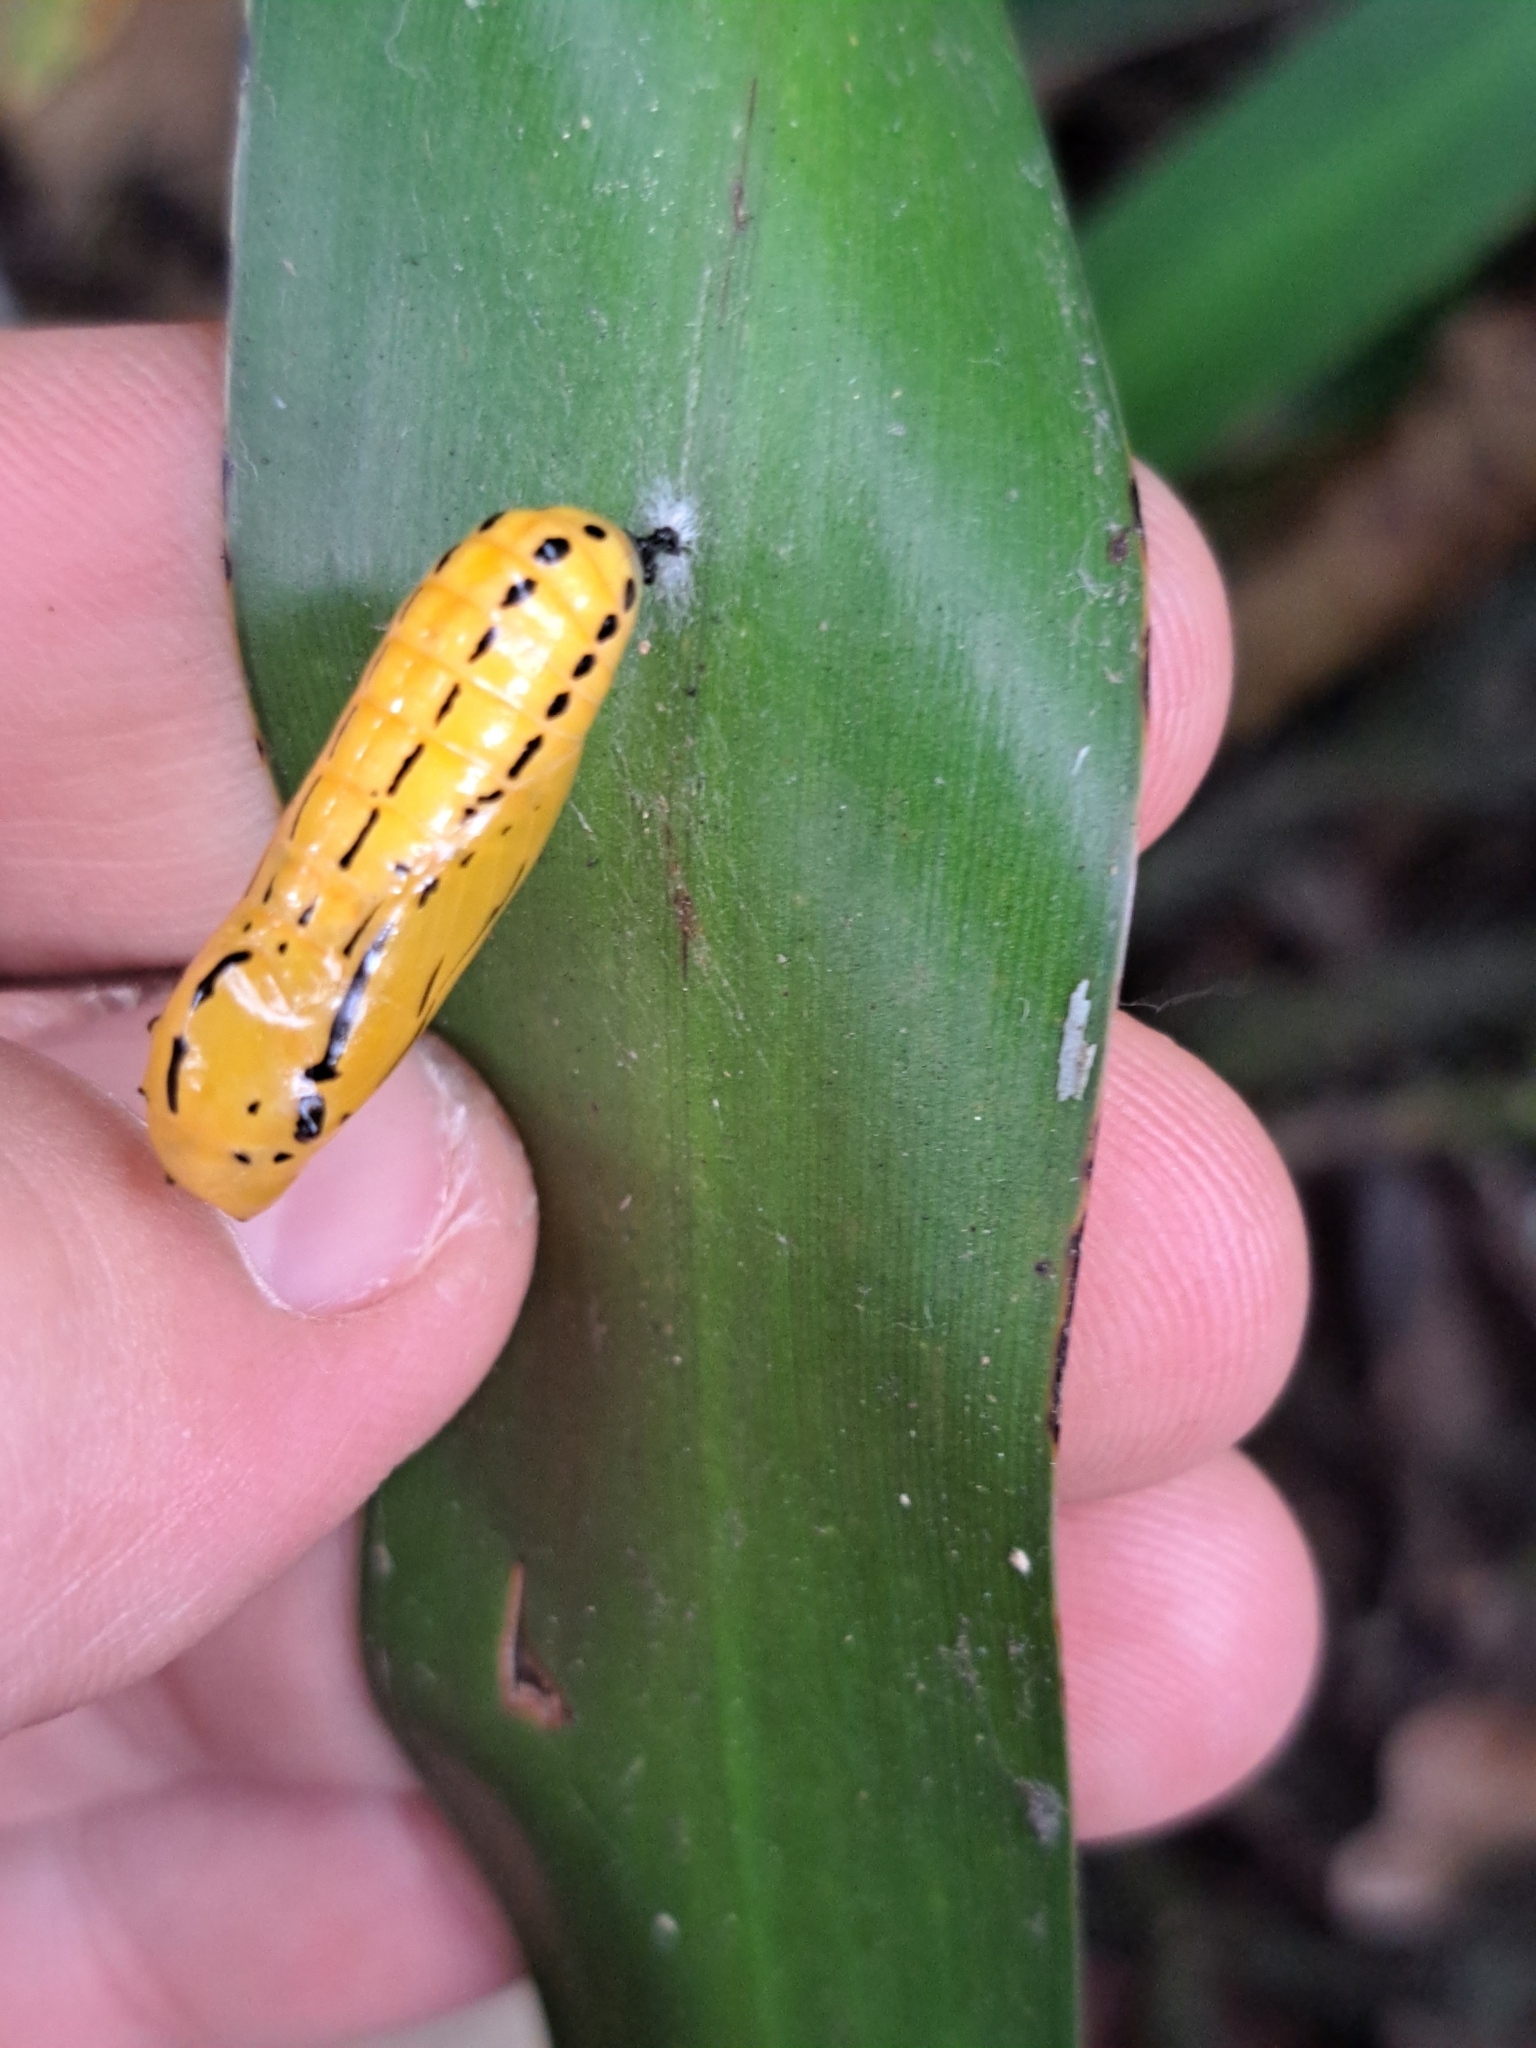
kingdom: Animalia
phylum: Arthropoda
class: Insecta
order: Lepidoptera
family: Nymphalidae
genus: Methona
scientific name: Methona themisto
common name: Themisto amberwing
